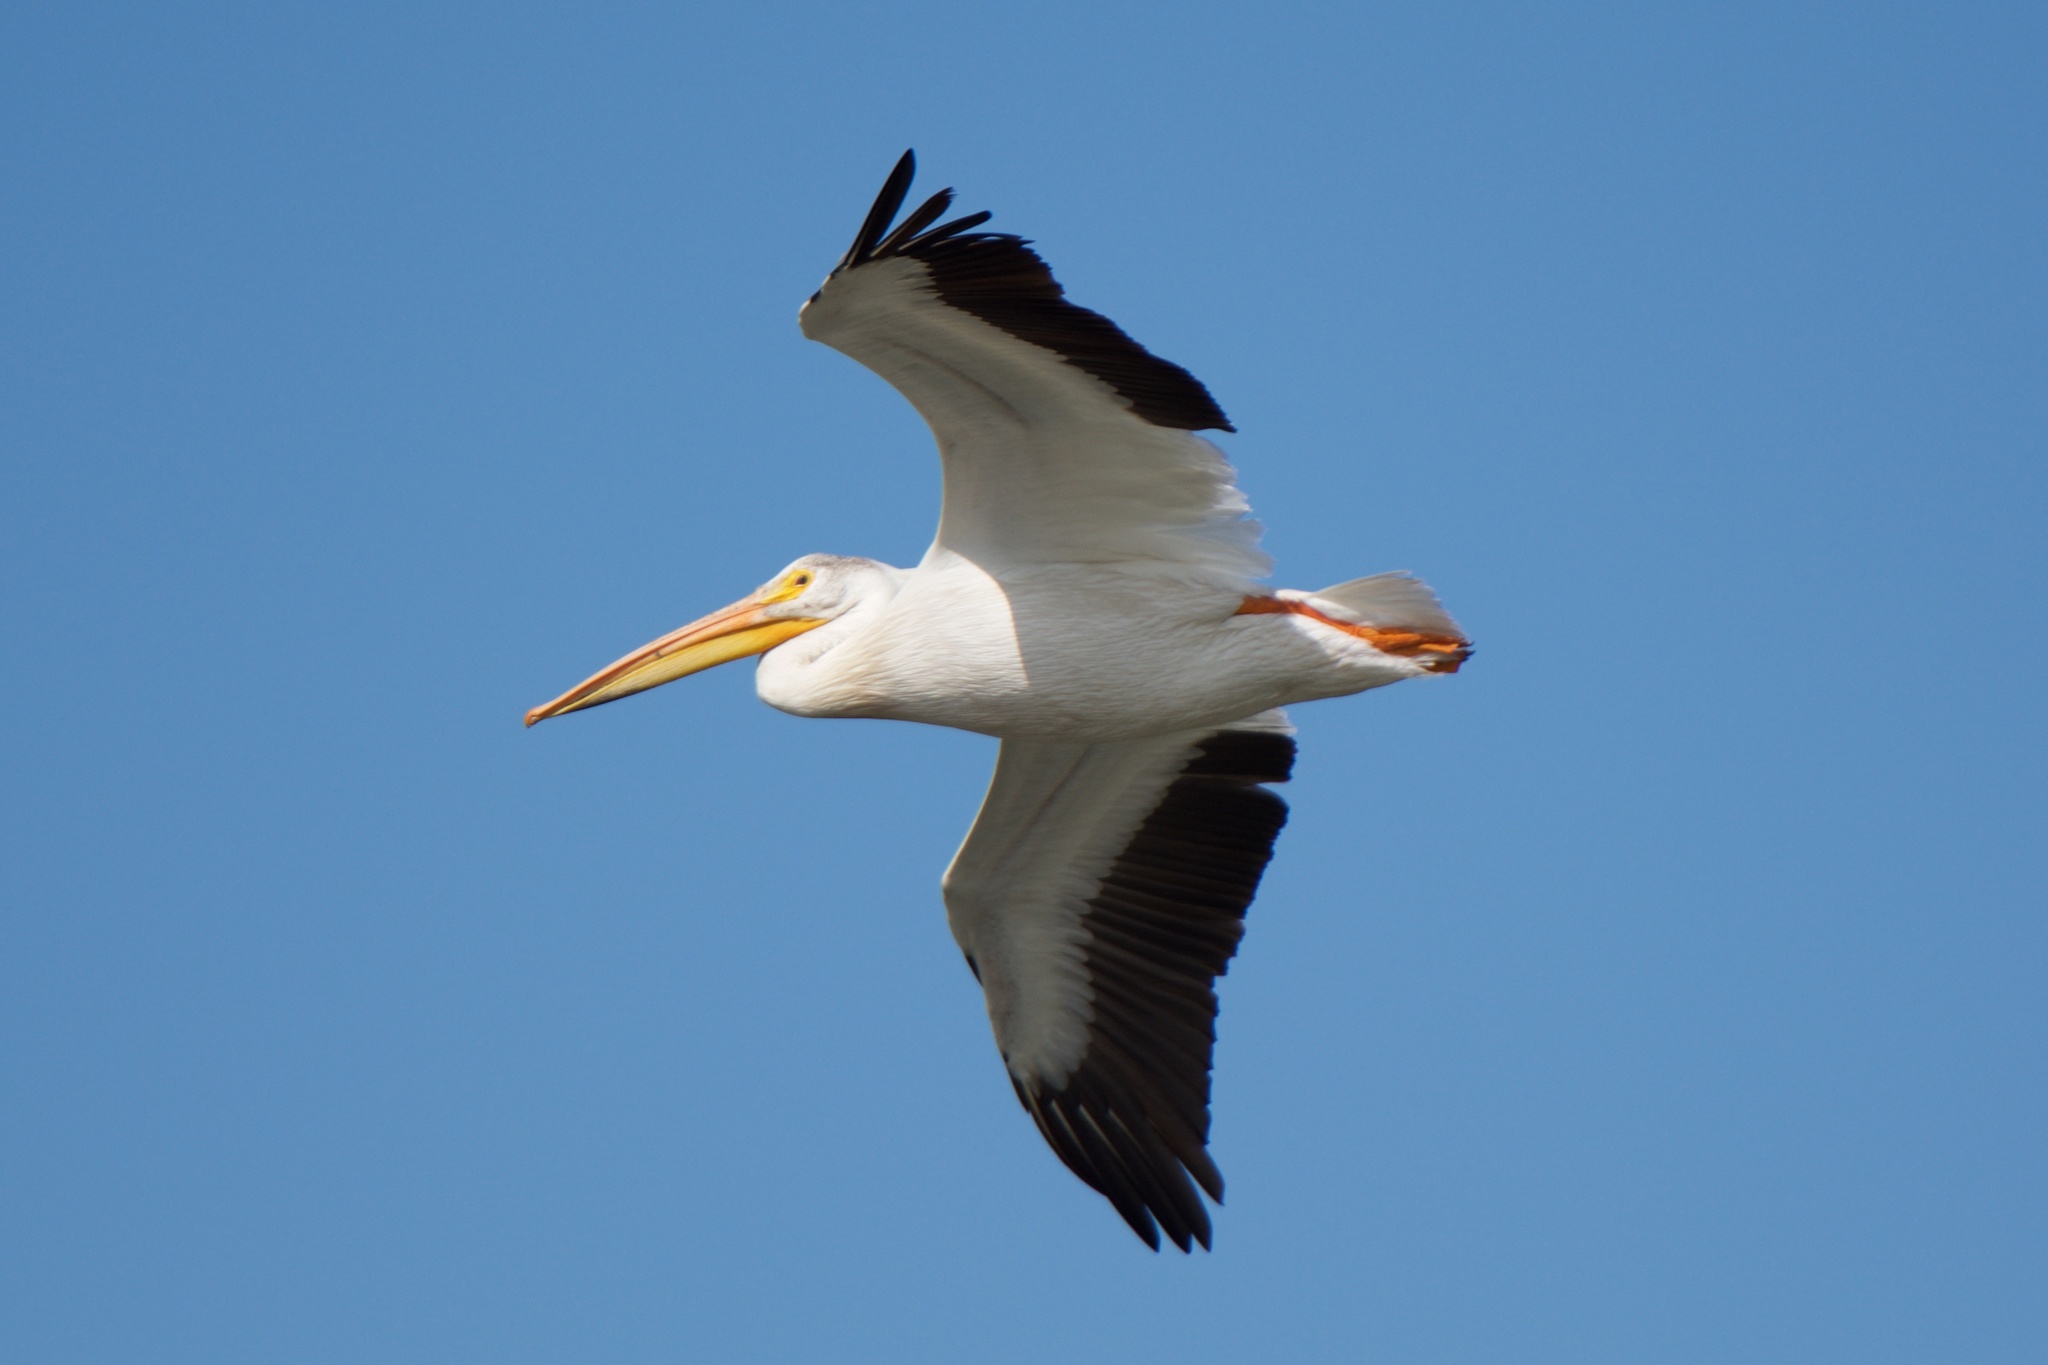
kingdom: Animalia
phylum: Chordata
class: Aves
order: Pelecaniformes
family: Pelecanidae
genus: Pelecanus
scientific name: Pelecanus erythrorhynchos
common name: American white pelican
